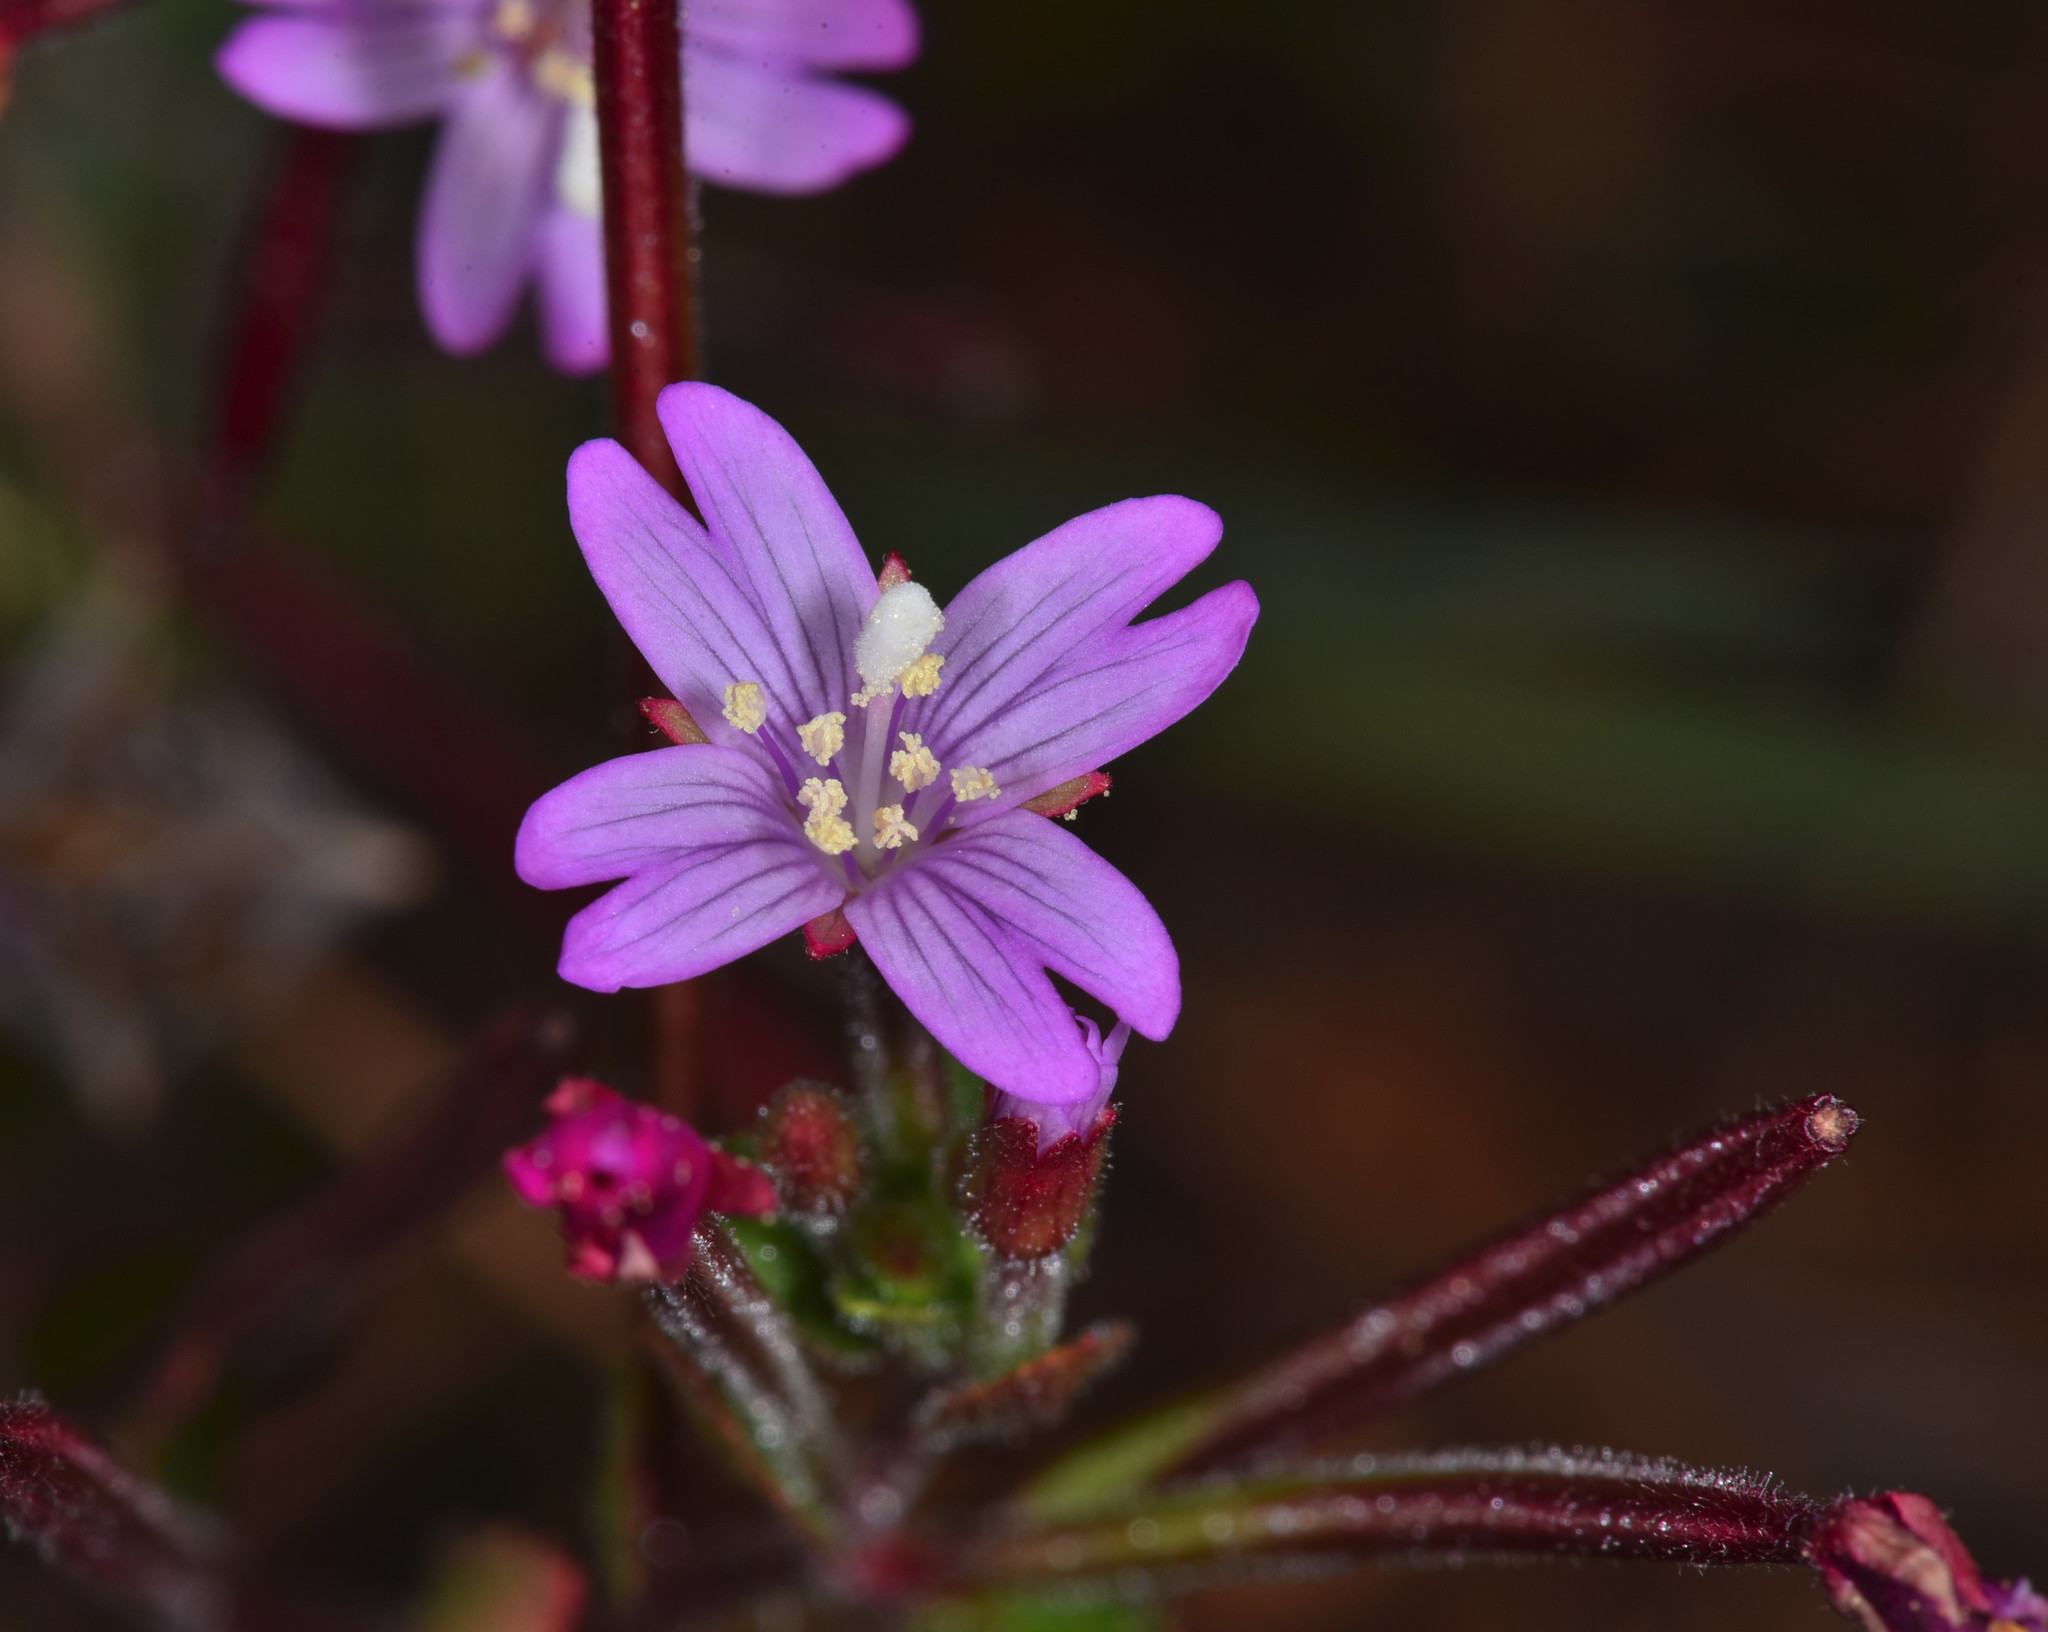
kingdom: Plantae
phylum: Tracheophyta
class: Magnoliopsida
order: Myrtales
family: Onagraceae
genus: Epilobium
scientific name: Epilobium ciliatum
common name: American willowherb
